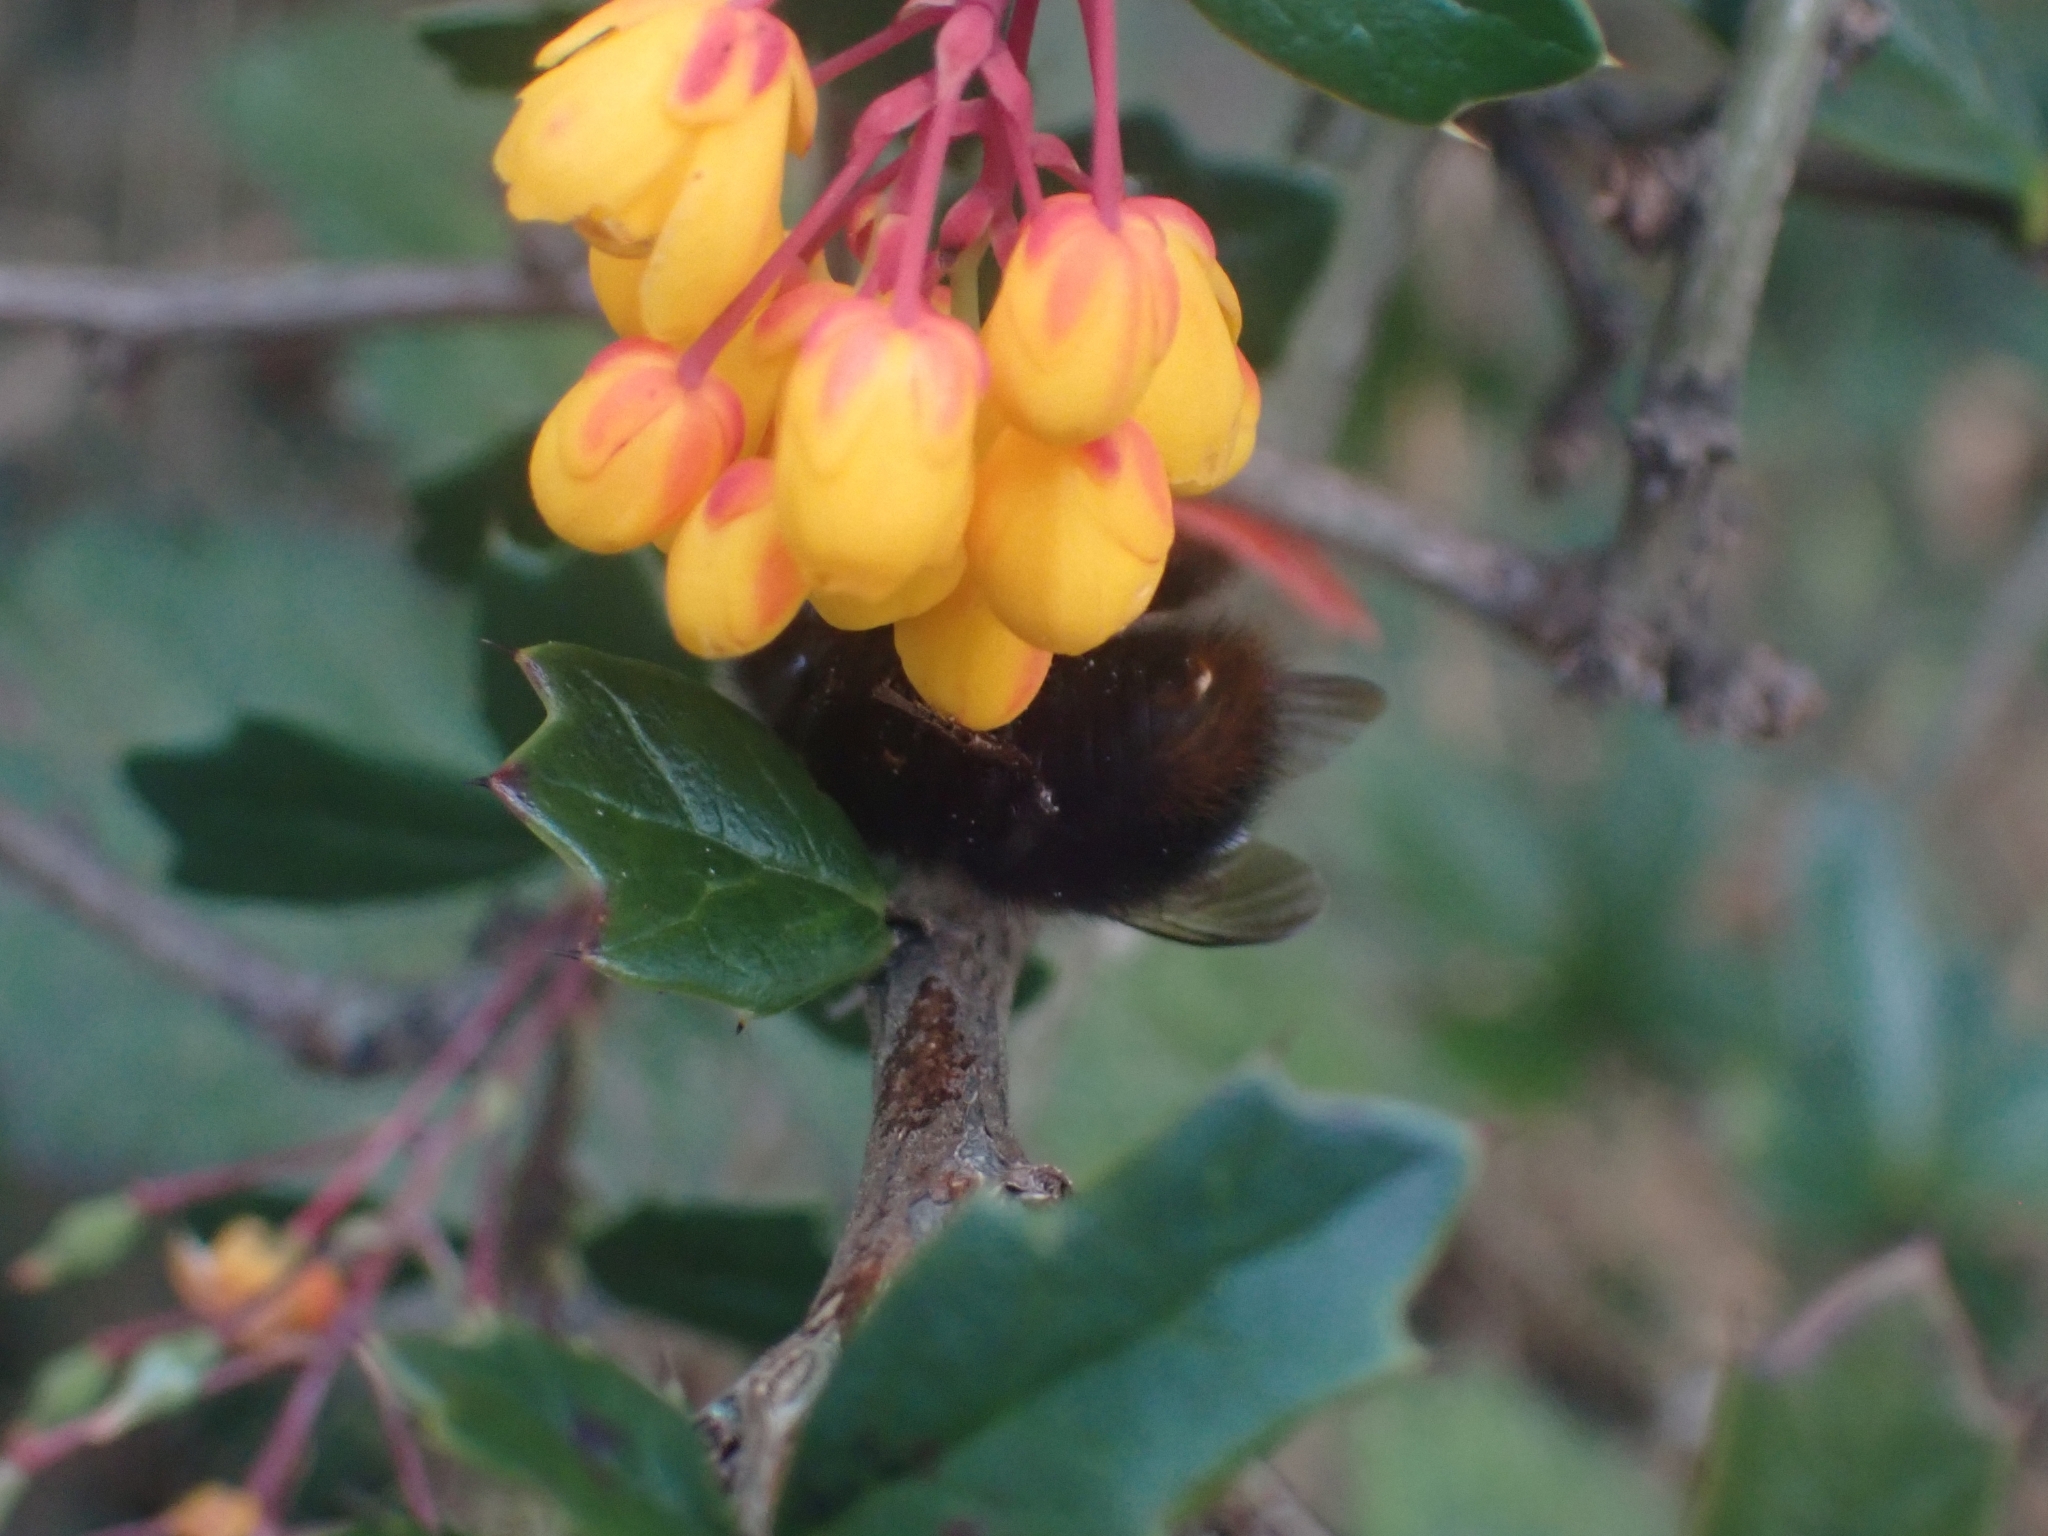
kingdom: Animalia
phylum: Arthropoda
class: Insecta
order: Hymenoptera
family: Apidae
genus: Bombus
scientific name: Bombus pratorum
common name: Early humble-bee
